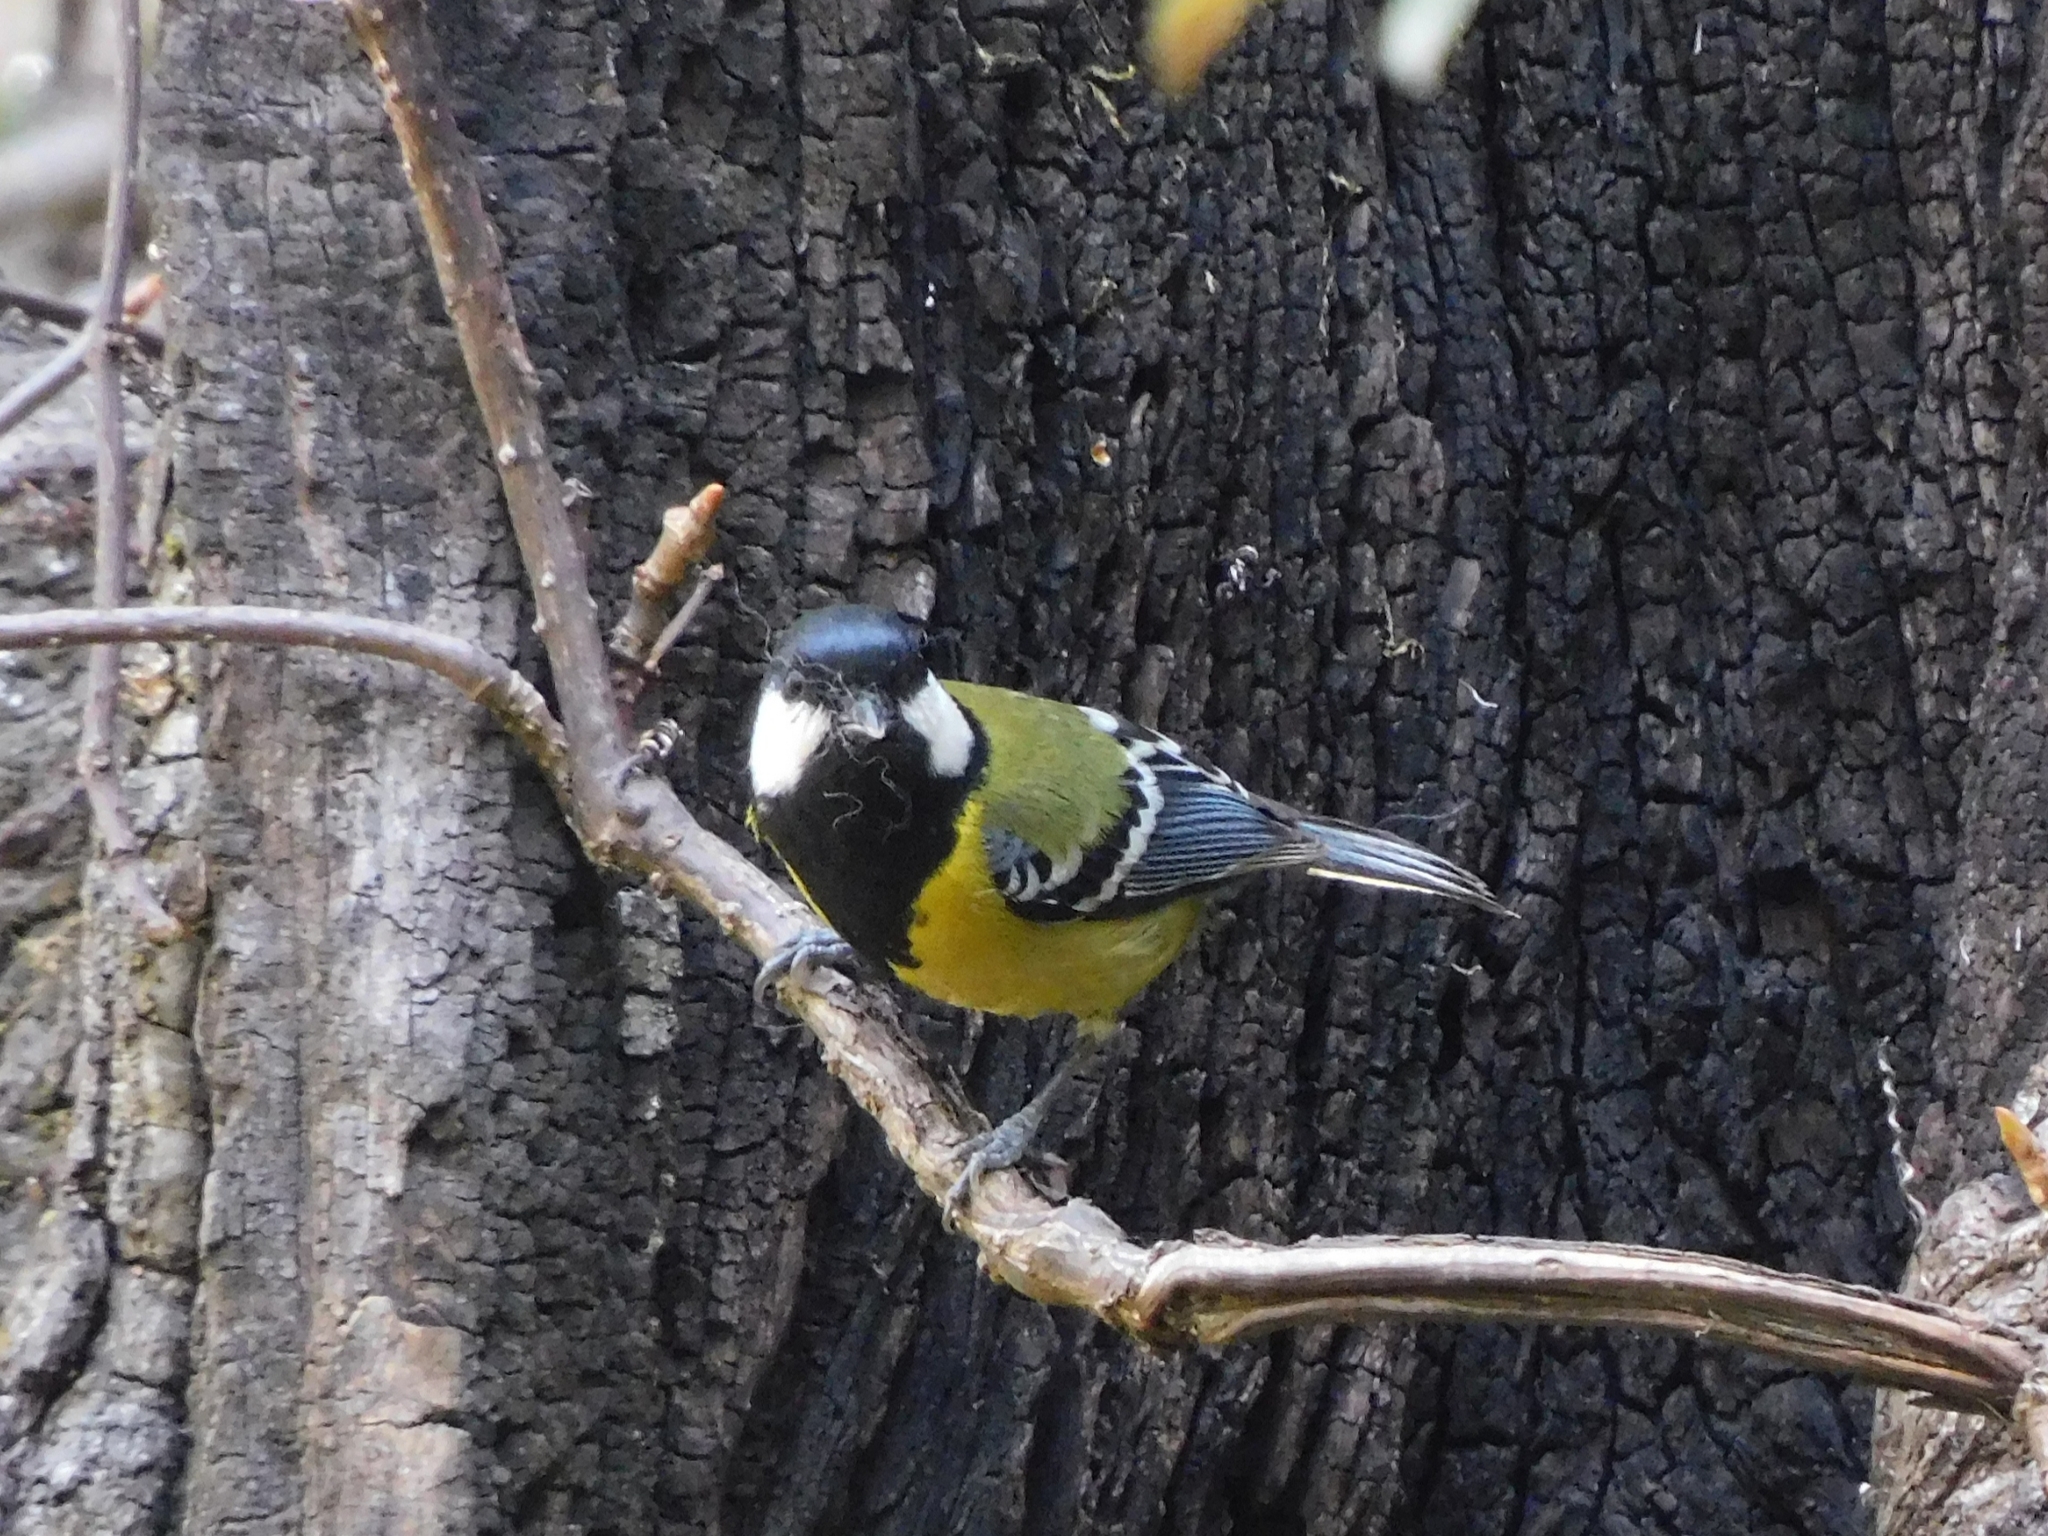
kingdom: Animalia
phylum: Chordata
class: Aves
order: Passeriformes
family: Paridae
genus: Parus
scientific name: Parus monticolus
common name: Green-backed tit
